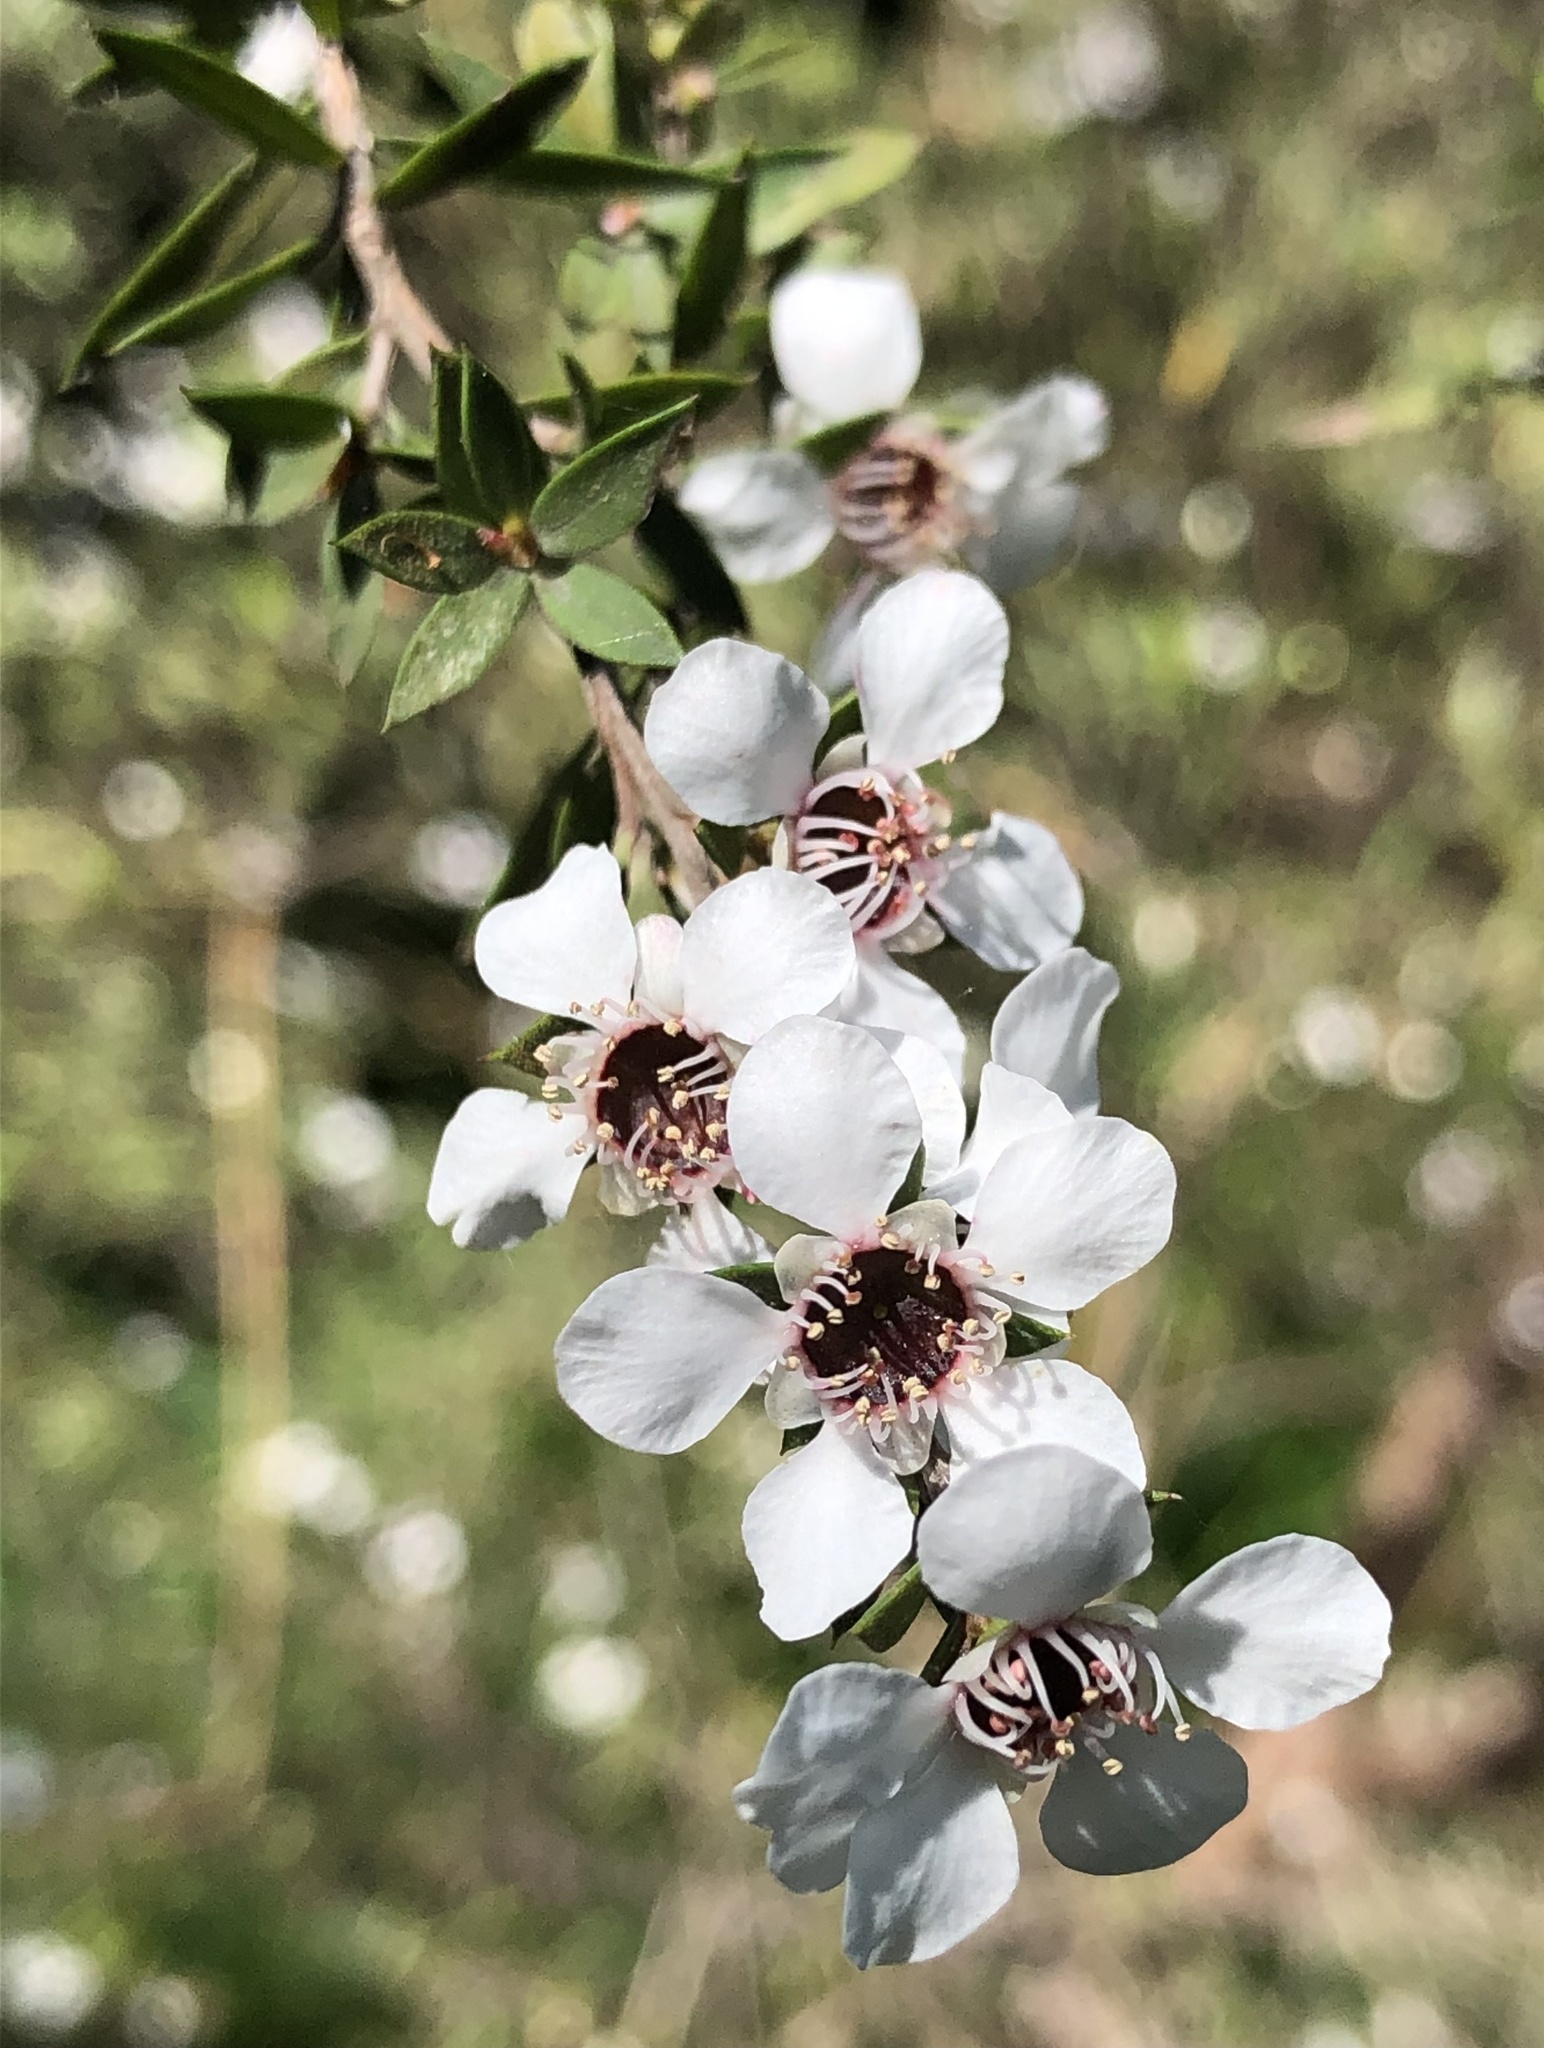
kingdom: Plantae
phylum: Tracheophyta
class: Magnoliopsida
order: Myrtales
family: Myrtaceae
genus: Leptospermum
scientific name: Leptospermum scoparium
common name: Broom tea-tree
